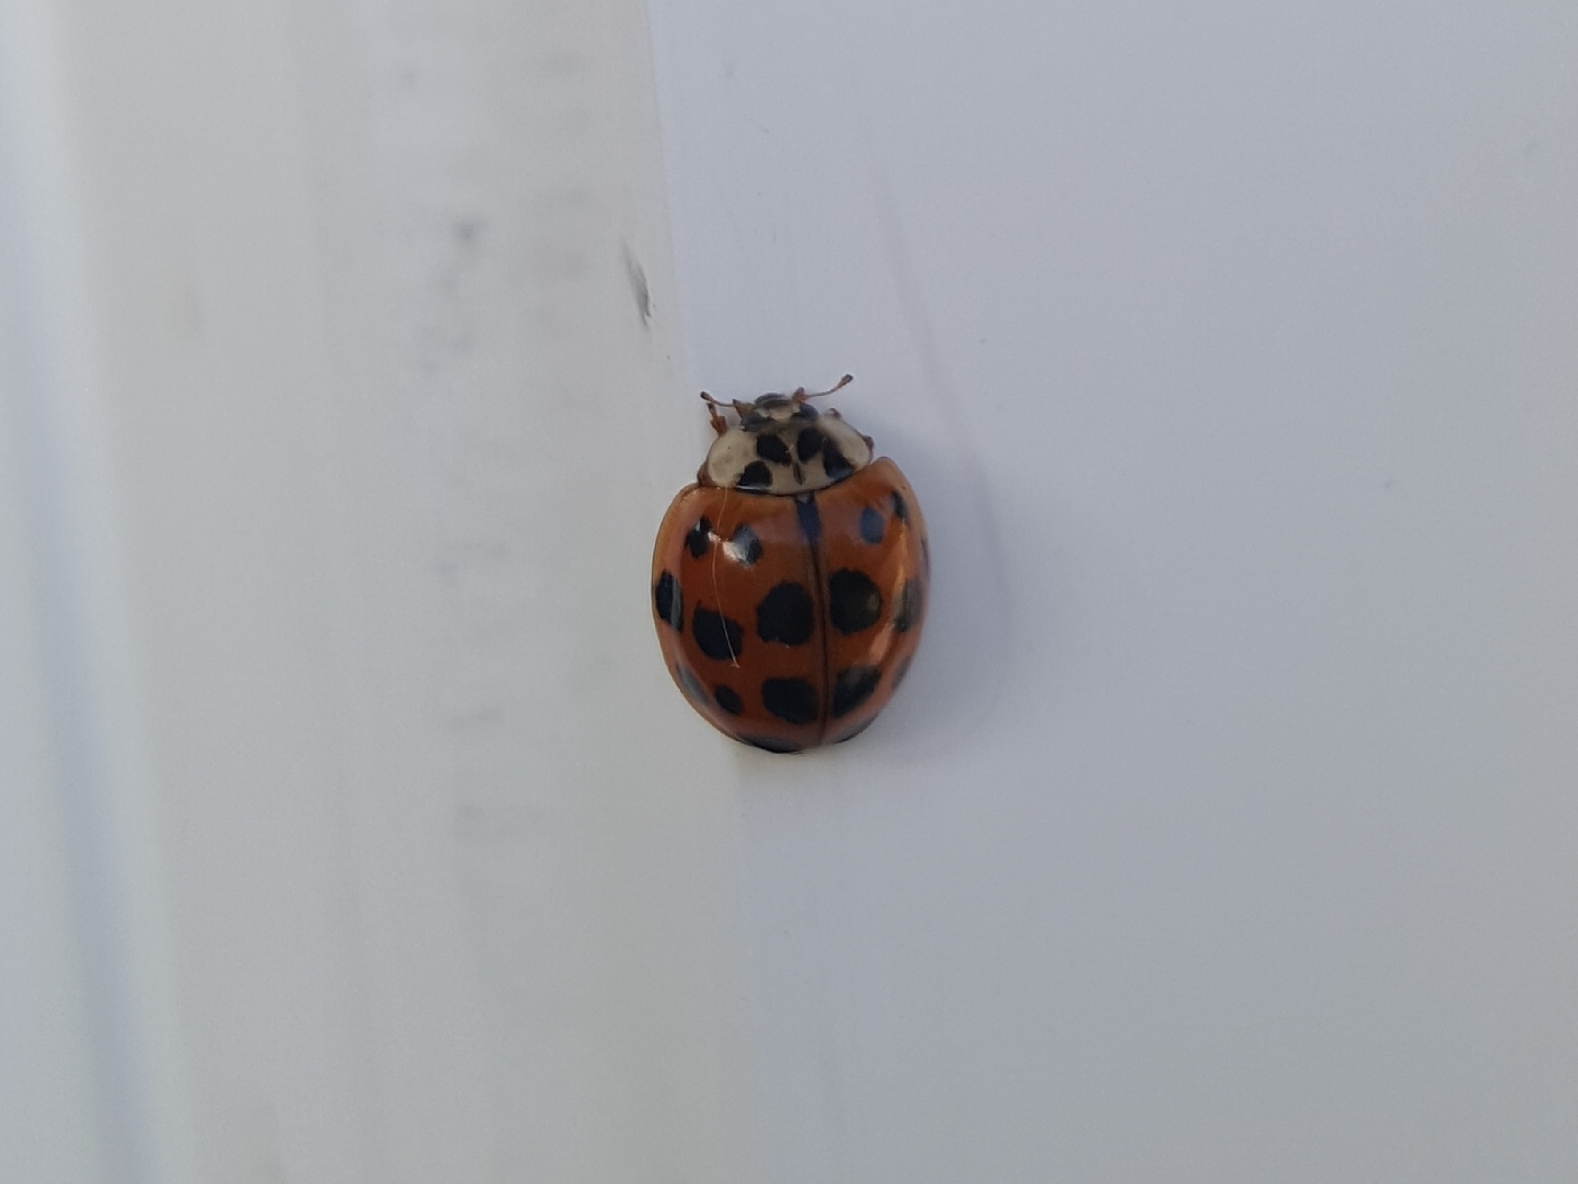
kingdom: Animalia
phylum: Arthropoda
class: Insecta
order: Coleoptera
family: Coccinellidae
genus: Harmonia
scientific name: Harmonia axyridis
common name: Harlequin ladybird
